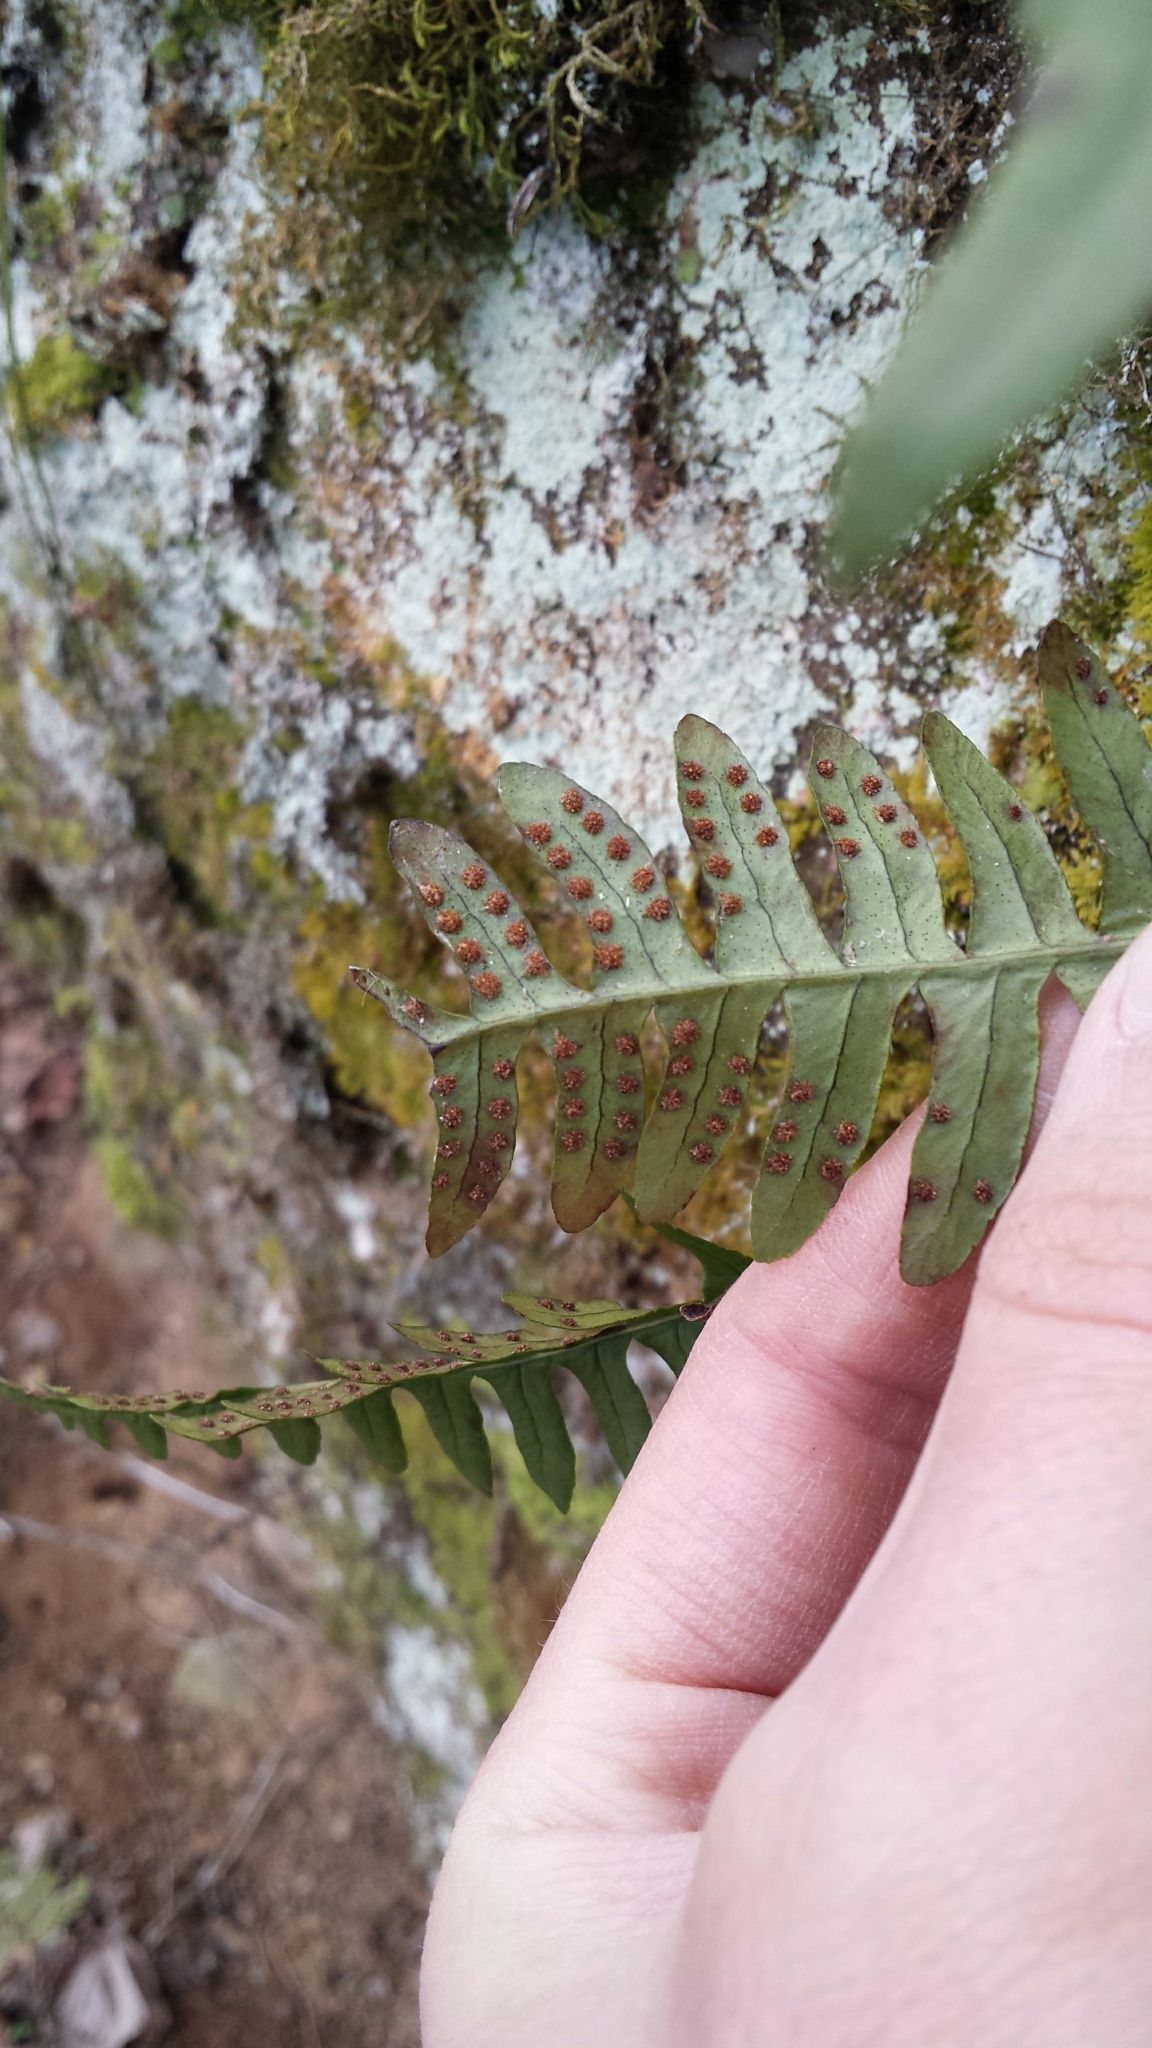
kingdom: Plantae
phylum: Tracheophyta
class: Polypodiopsida
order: Polypodiales
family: Polypodiaceae
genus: Polypodium
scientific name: Polypodium virginianum
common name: American wall fern
